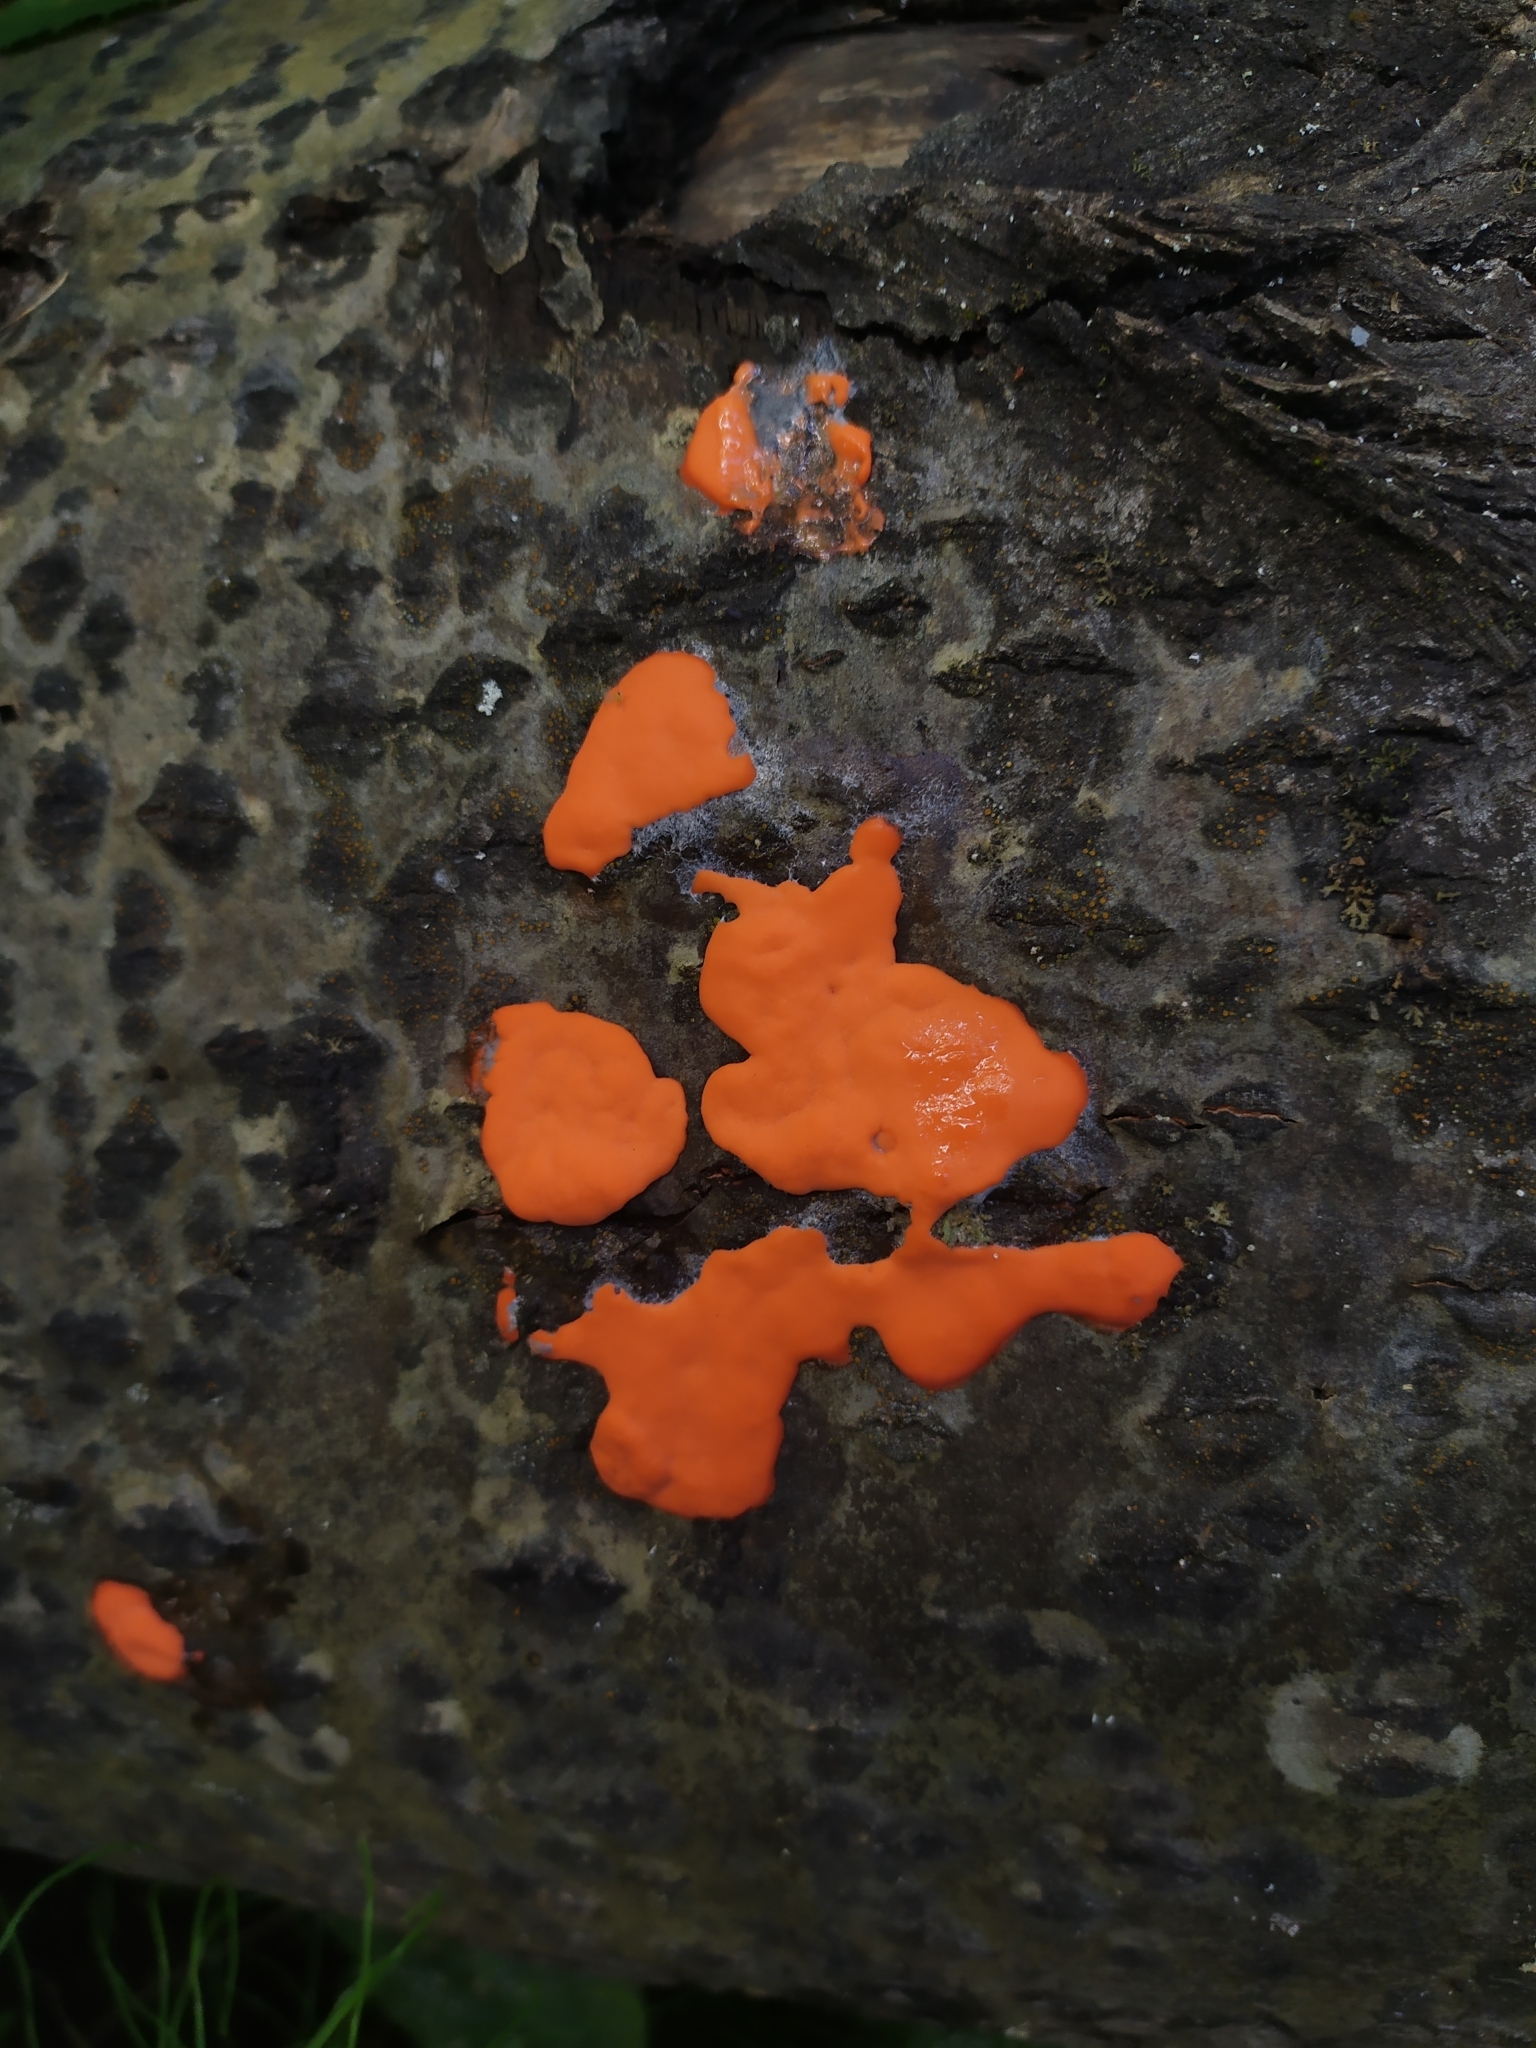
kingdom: Protozoa
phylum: Mycetozoa
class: Myxomycetes
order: Trichiales
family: Dictydiaethaliaceae
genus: Dictydiaethalium
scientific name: Dictydiaethalium plumbeum
